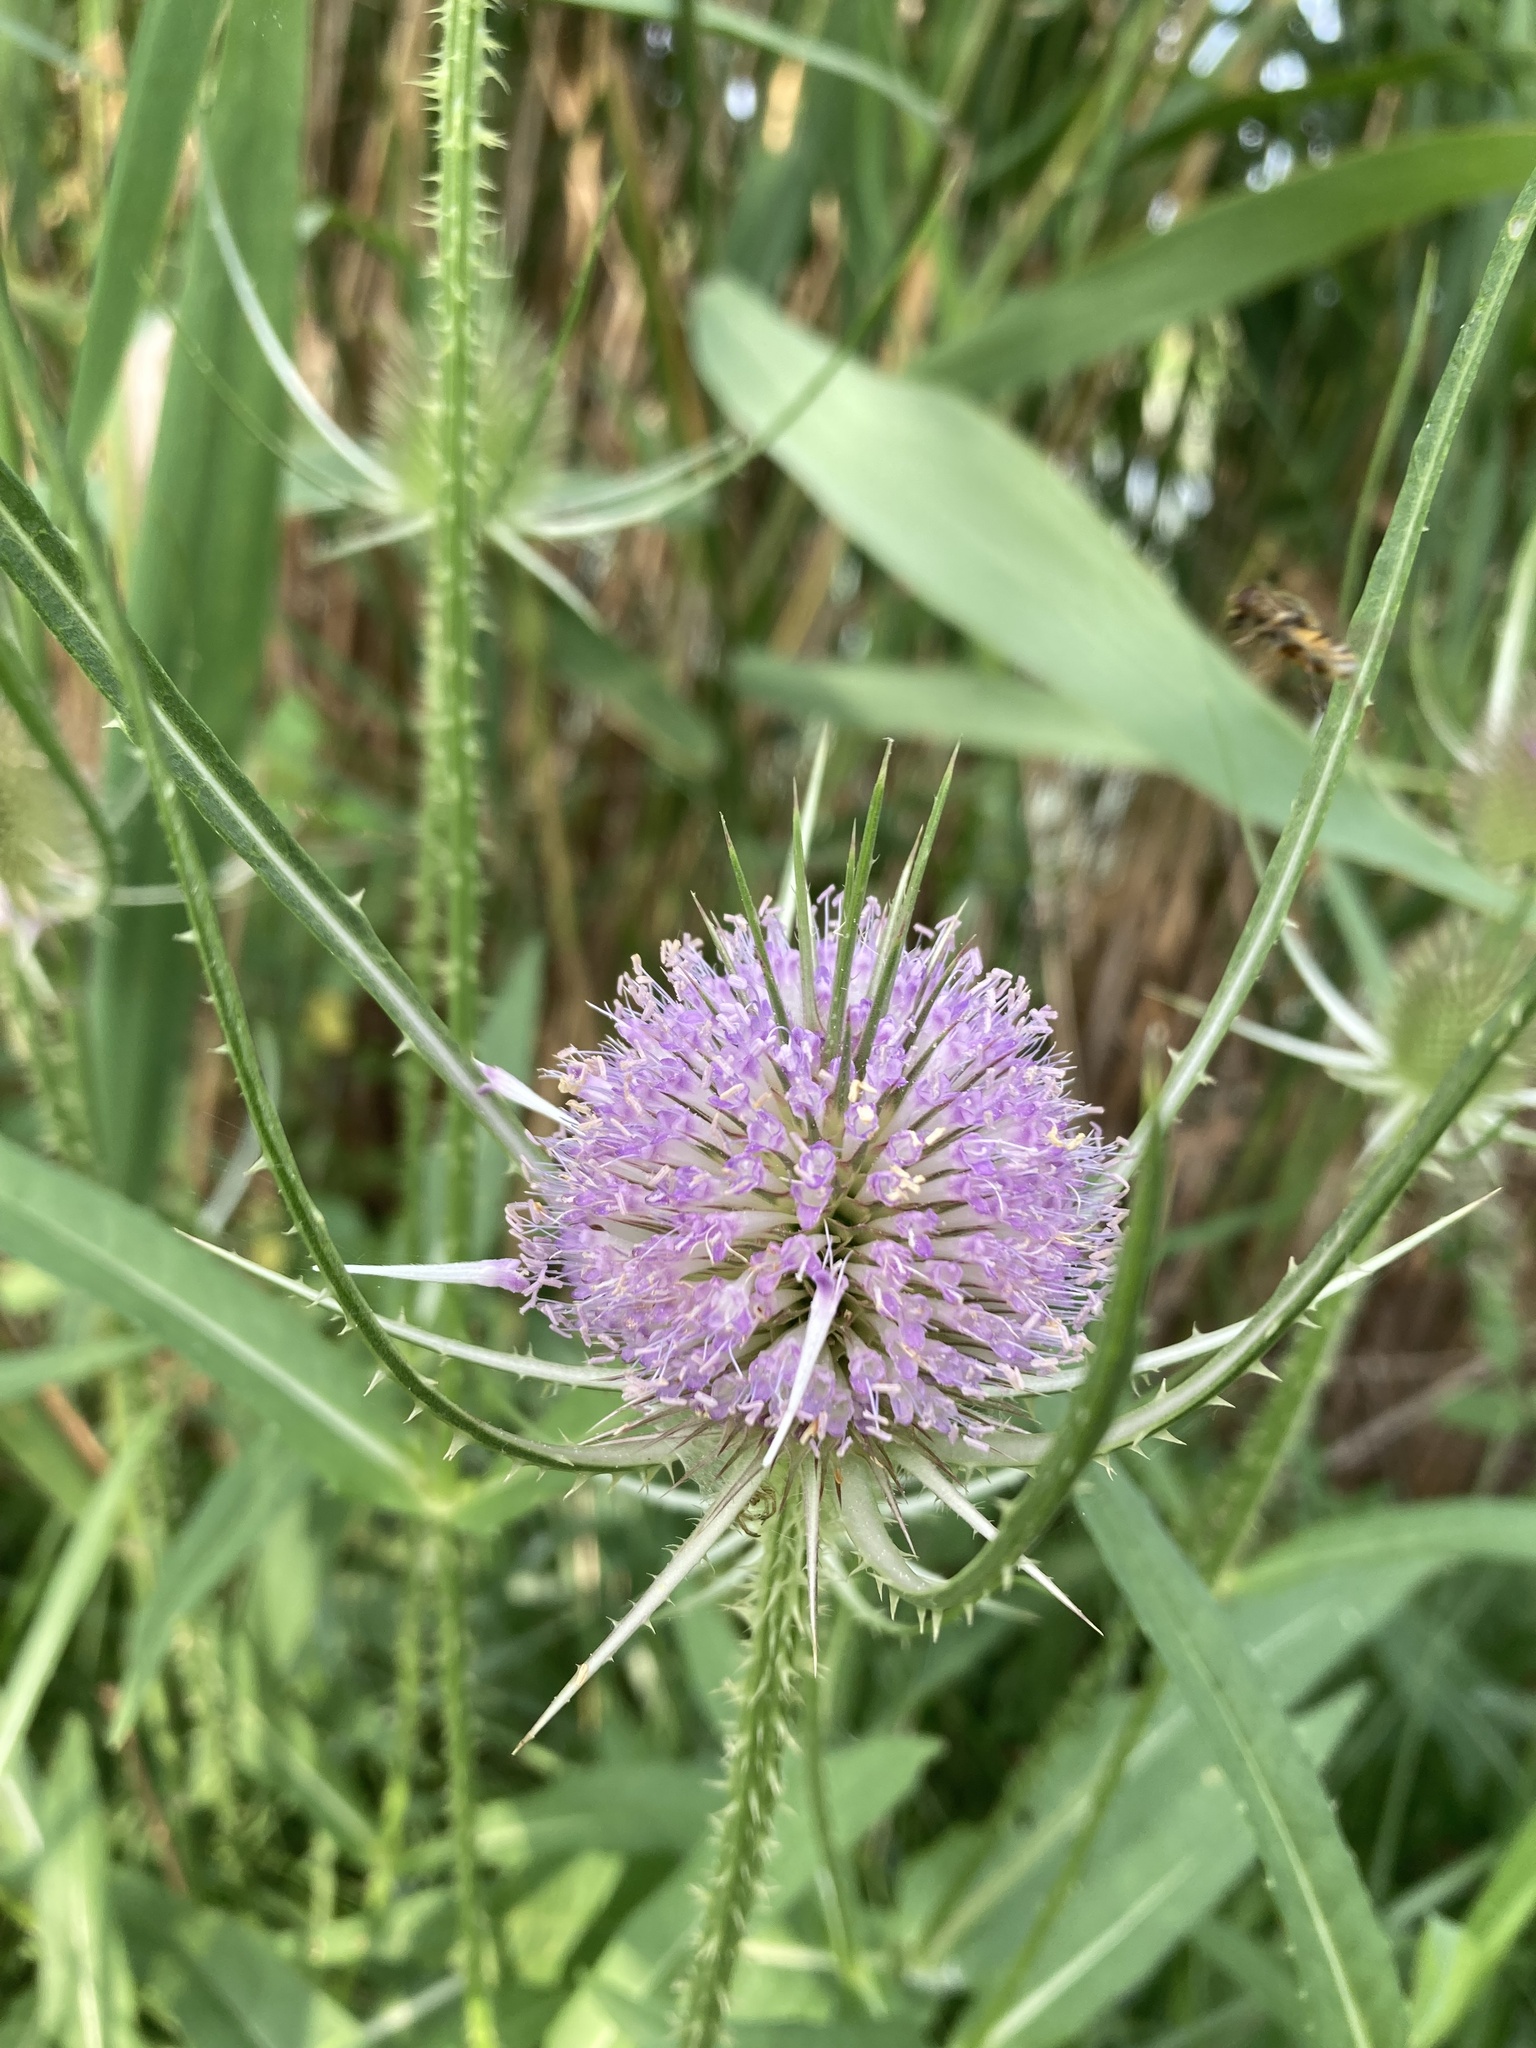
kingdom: Plantae
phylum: Tracheophyta
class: Magnoliopsida
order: Dipsacales
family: Caprifoliaceae
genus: Dipsacus
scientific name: Dipsacus fullonum
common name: Teasel
